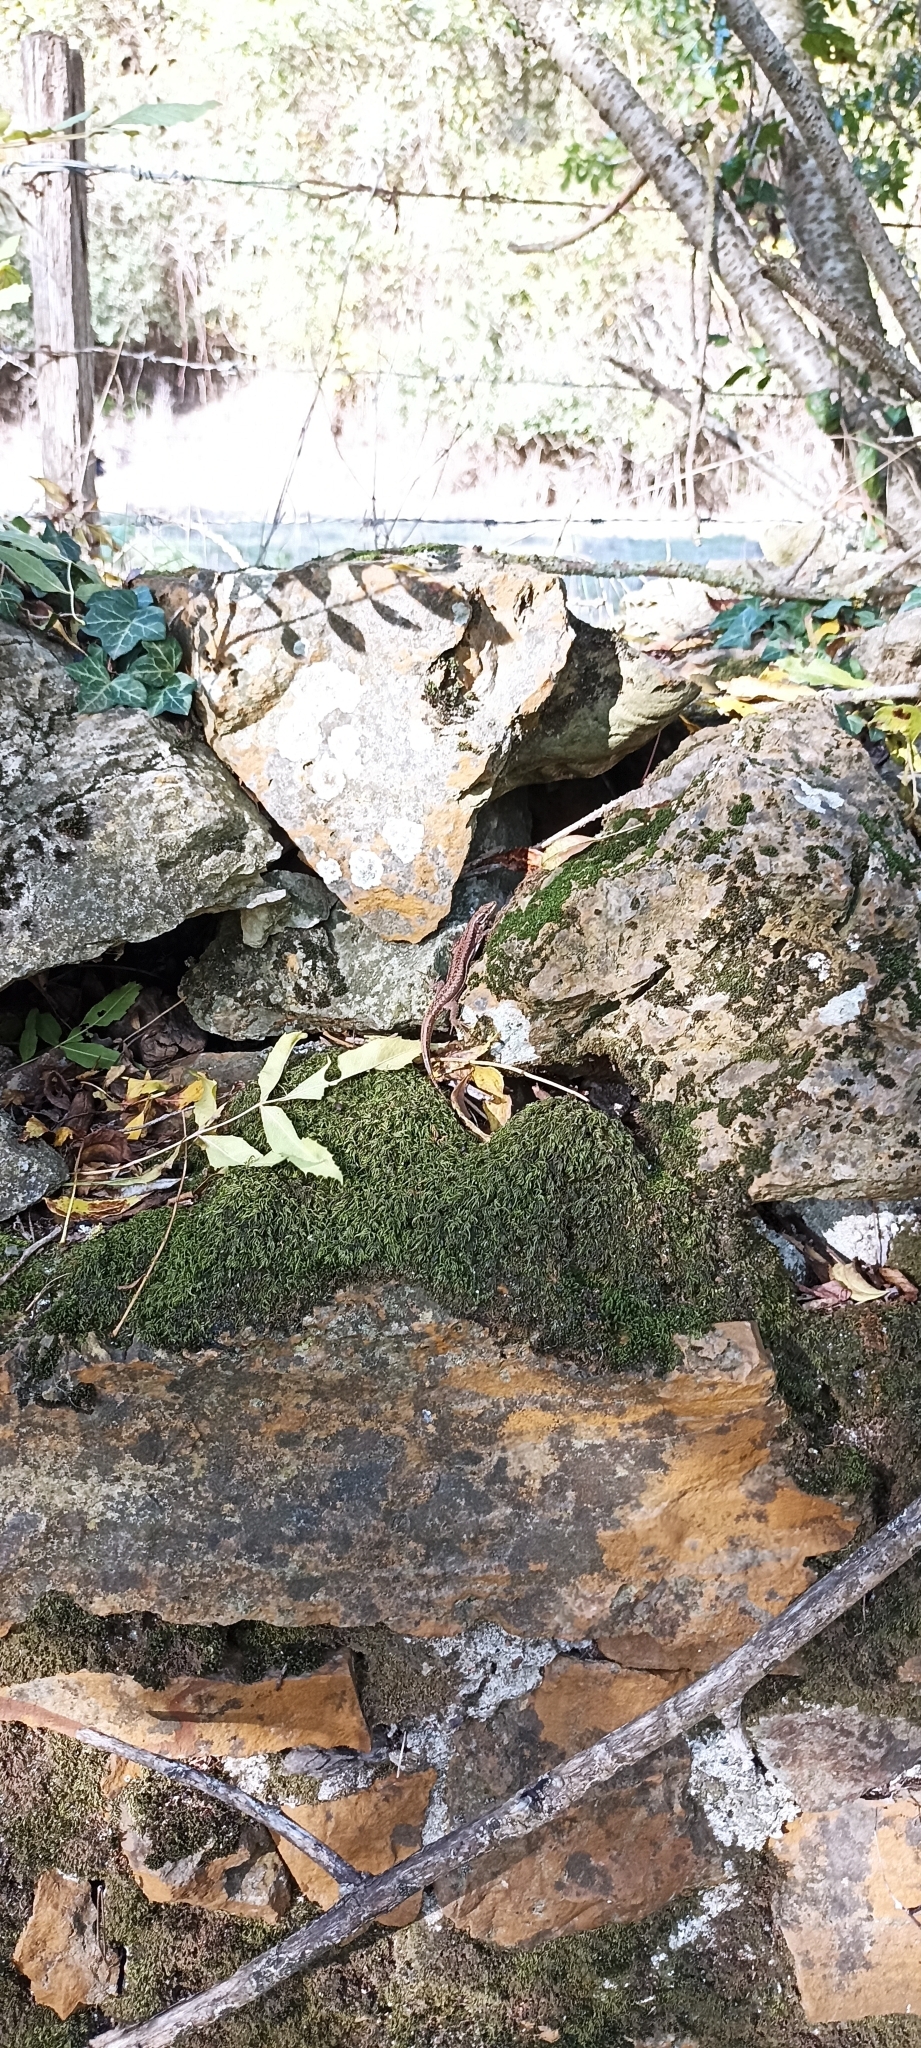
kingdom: Animalia
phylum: Chordata
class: Squamata
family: Lacertidae
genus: Podarcis
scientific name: Podarcis muralis
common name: Common wall lizard
